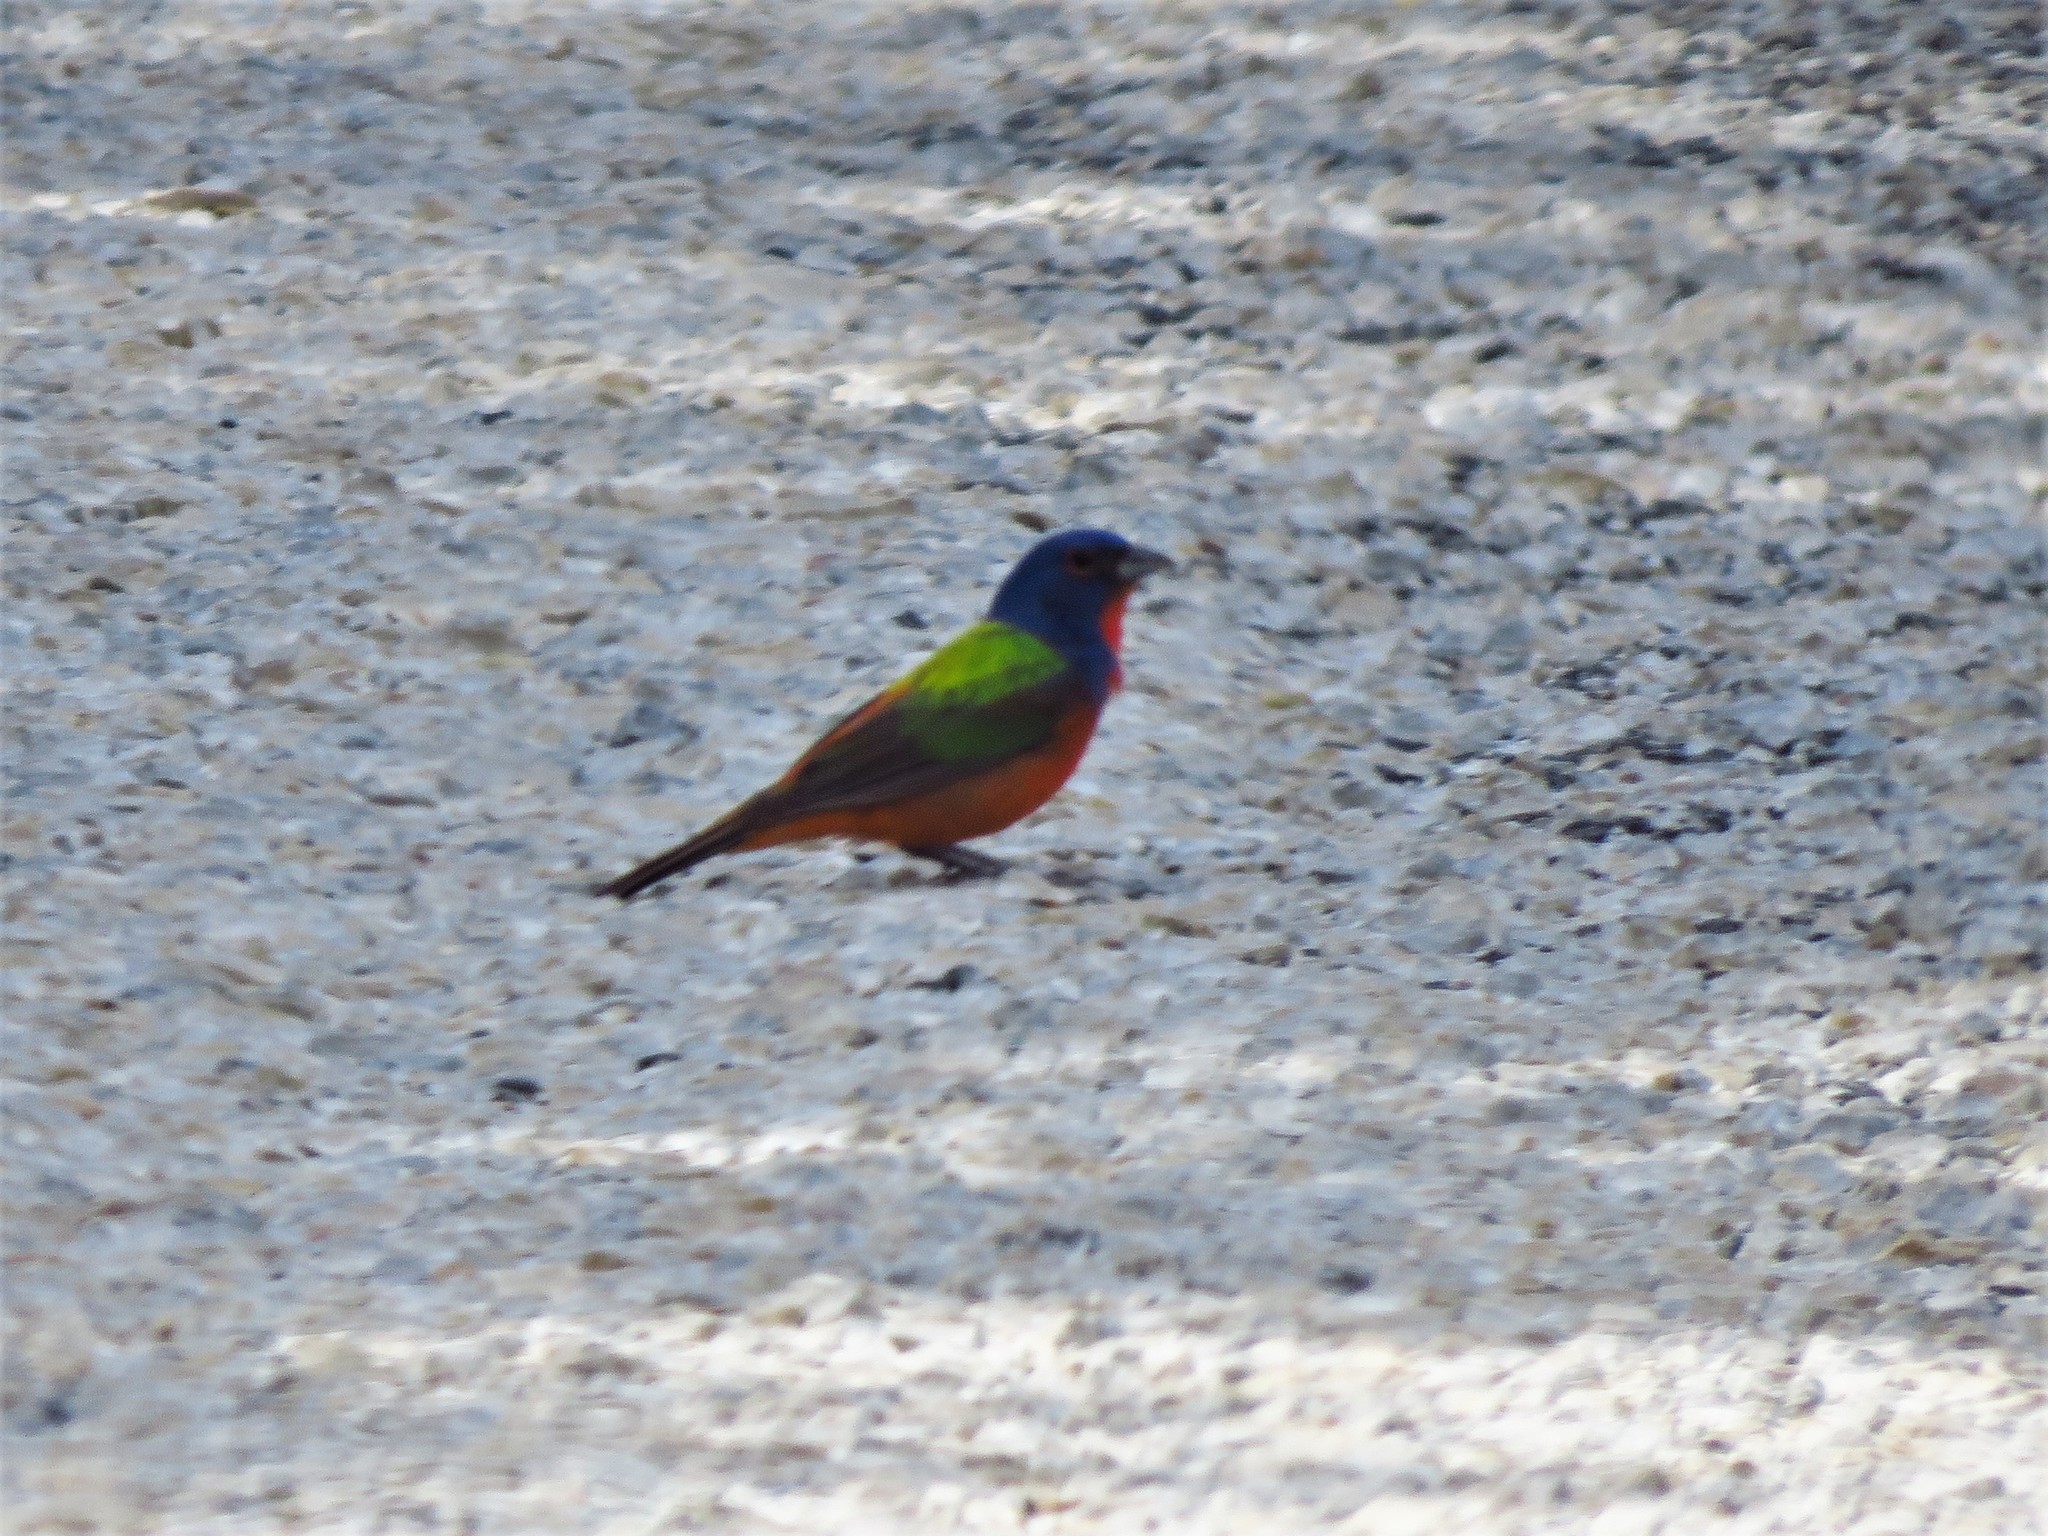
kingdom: Animalia
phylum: Chordata
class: Aves
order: Passeriformes
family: Cardinalidae
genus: Passerina
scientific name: Passerina ciris
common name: Painted bunting
